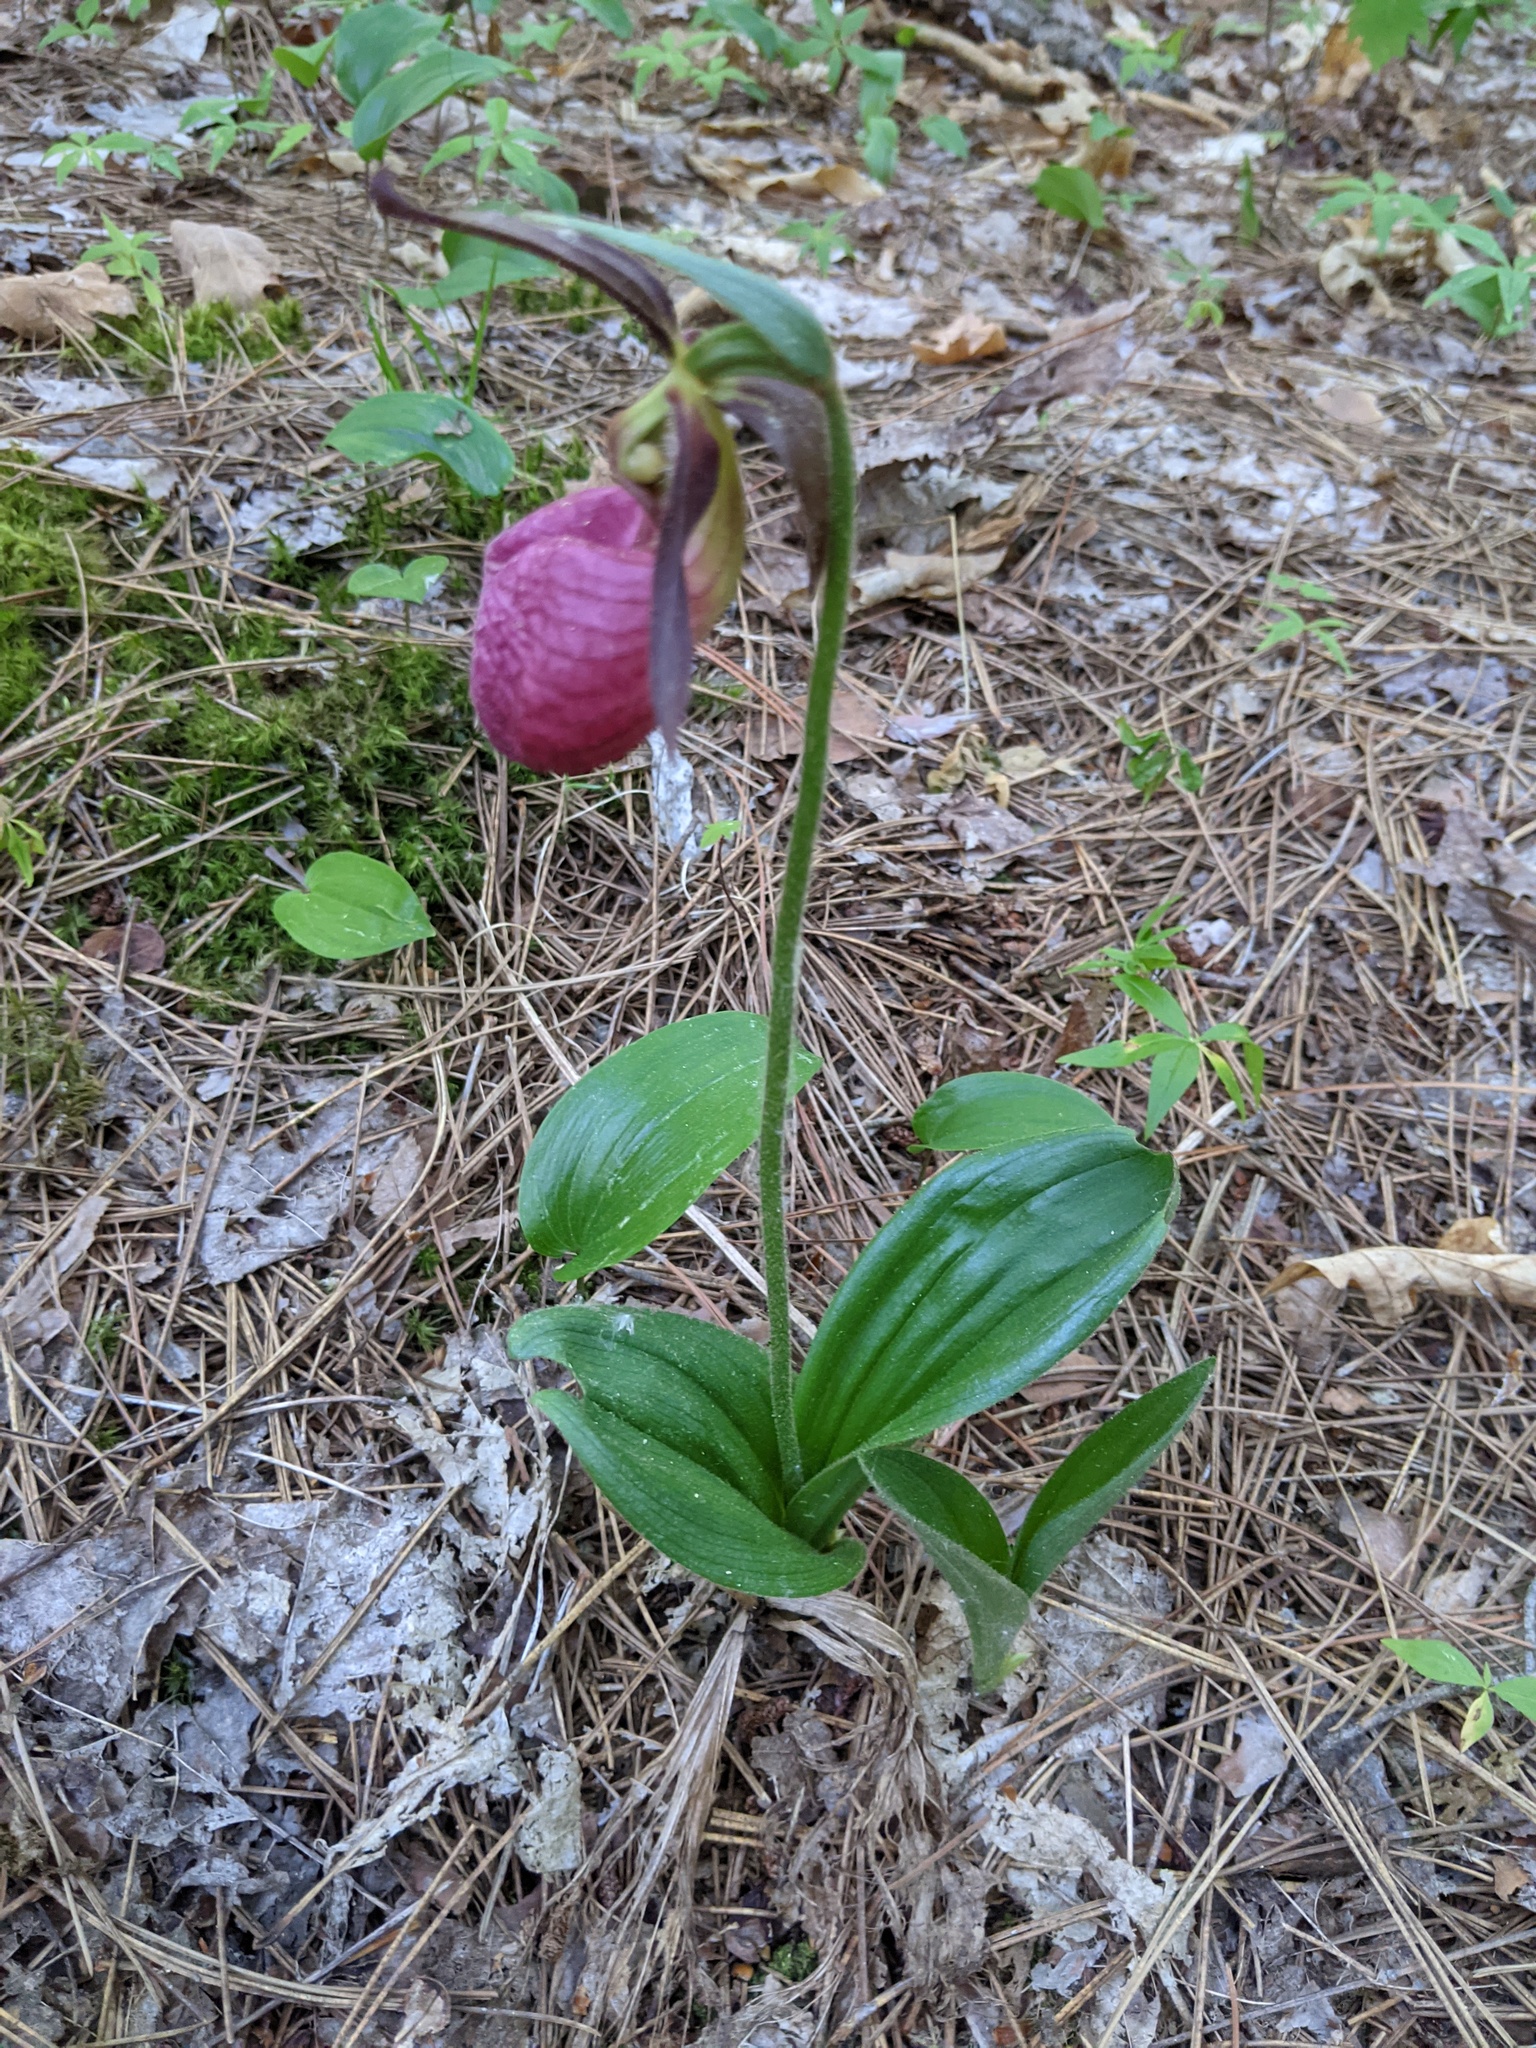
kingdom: Plantae
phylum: Tracheophyta
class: Liliopsida
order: Asparagales
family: Orchidaceae
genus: Cypripedium
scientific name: Cypripedium acaule
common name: Pink lady's-slipper
